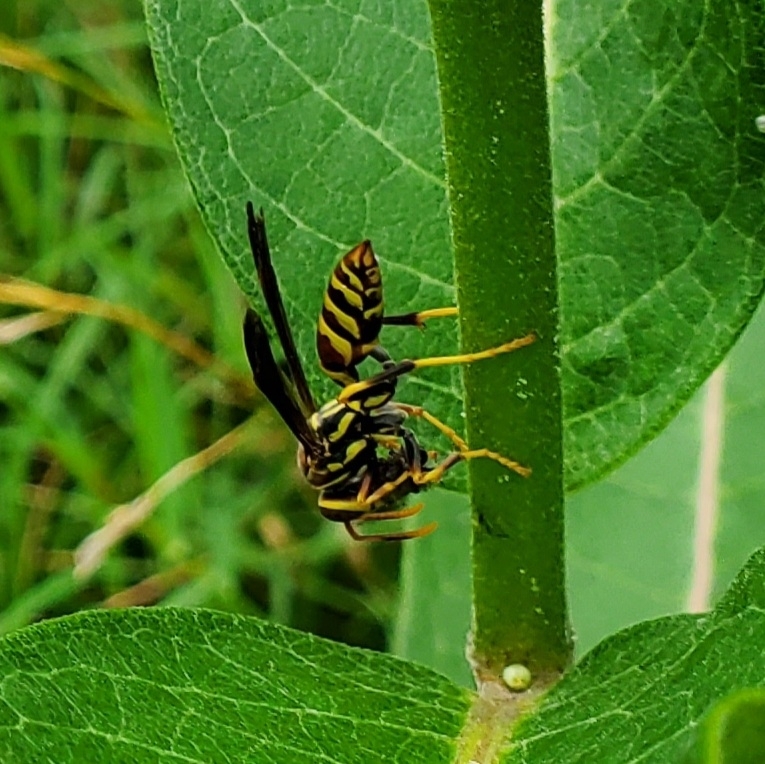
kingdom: Animalia
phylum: Arthropoda
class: Insecta
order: Hymenoptera
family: Eumenidae
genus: Polistes
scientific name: Polistes exclamans
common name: Paper wasp
